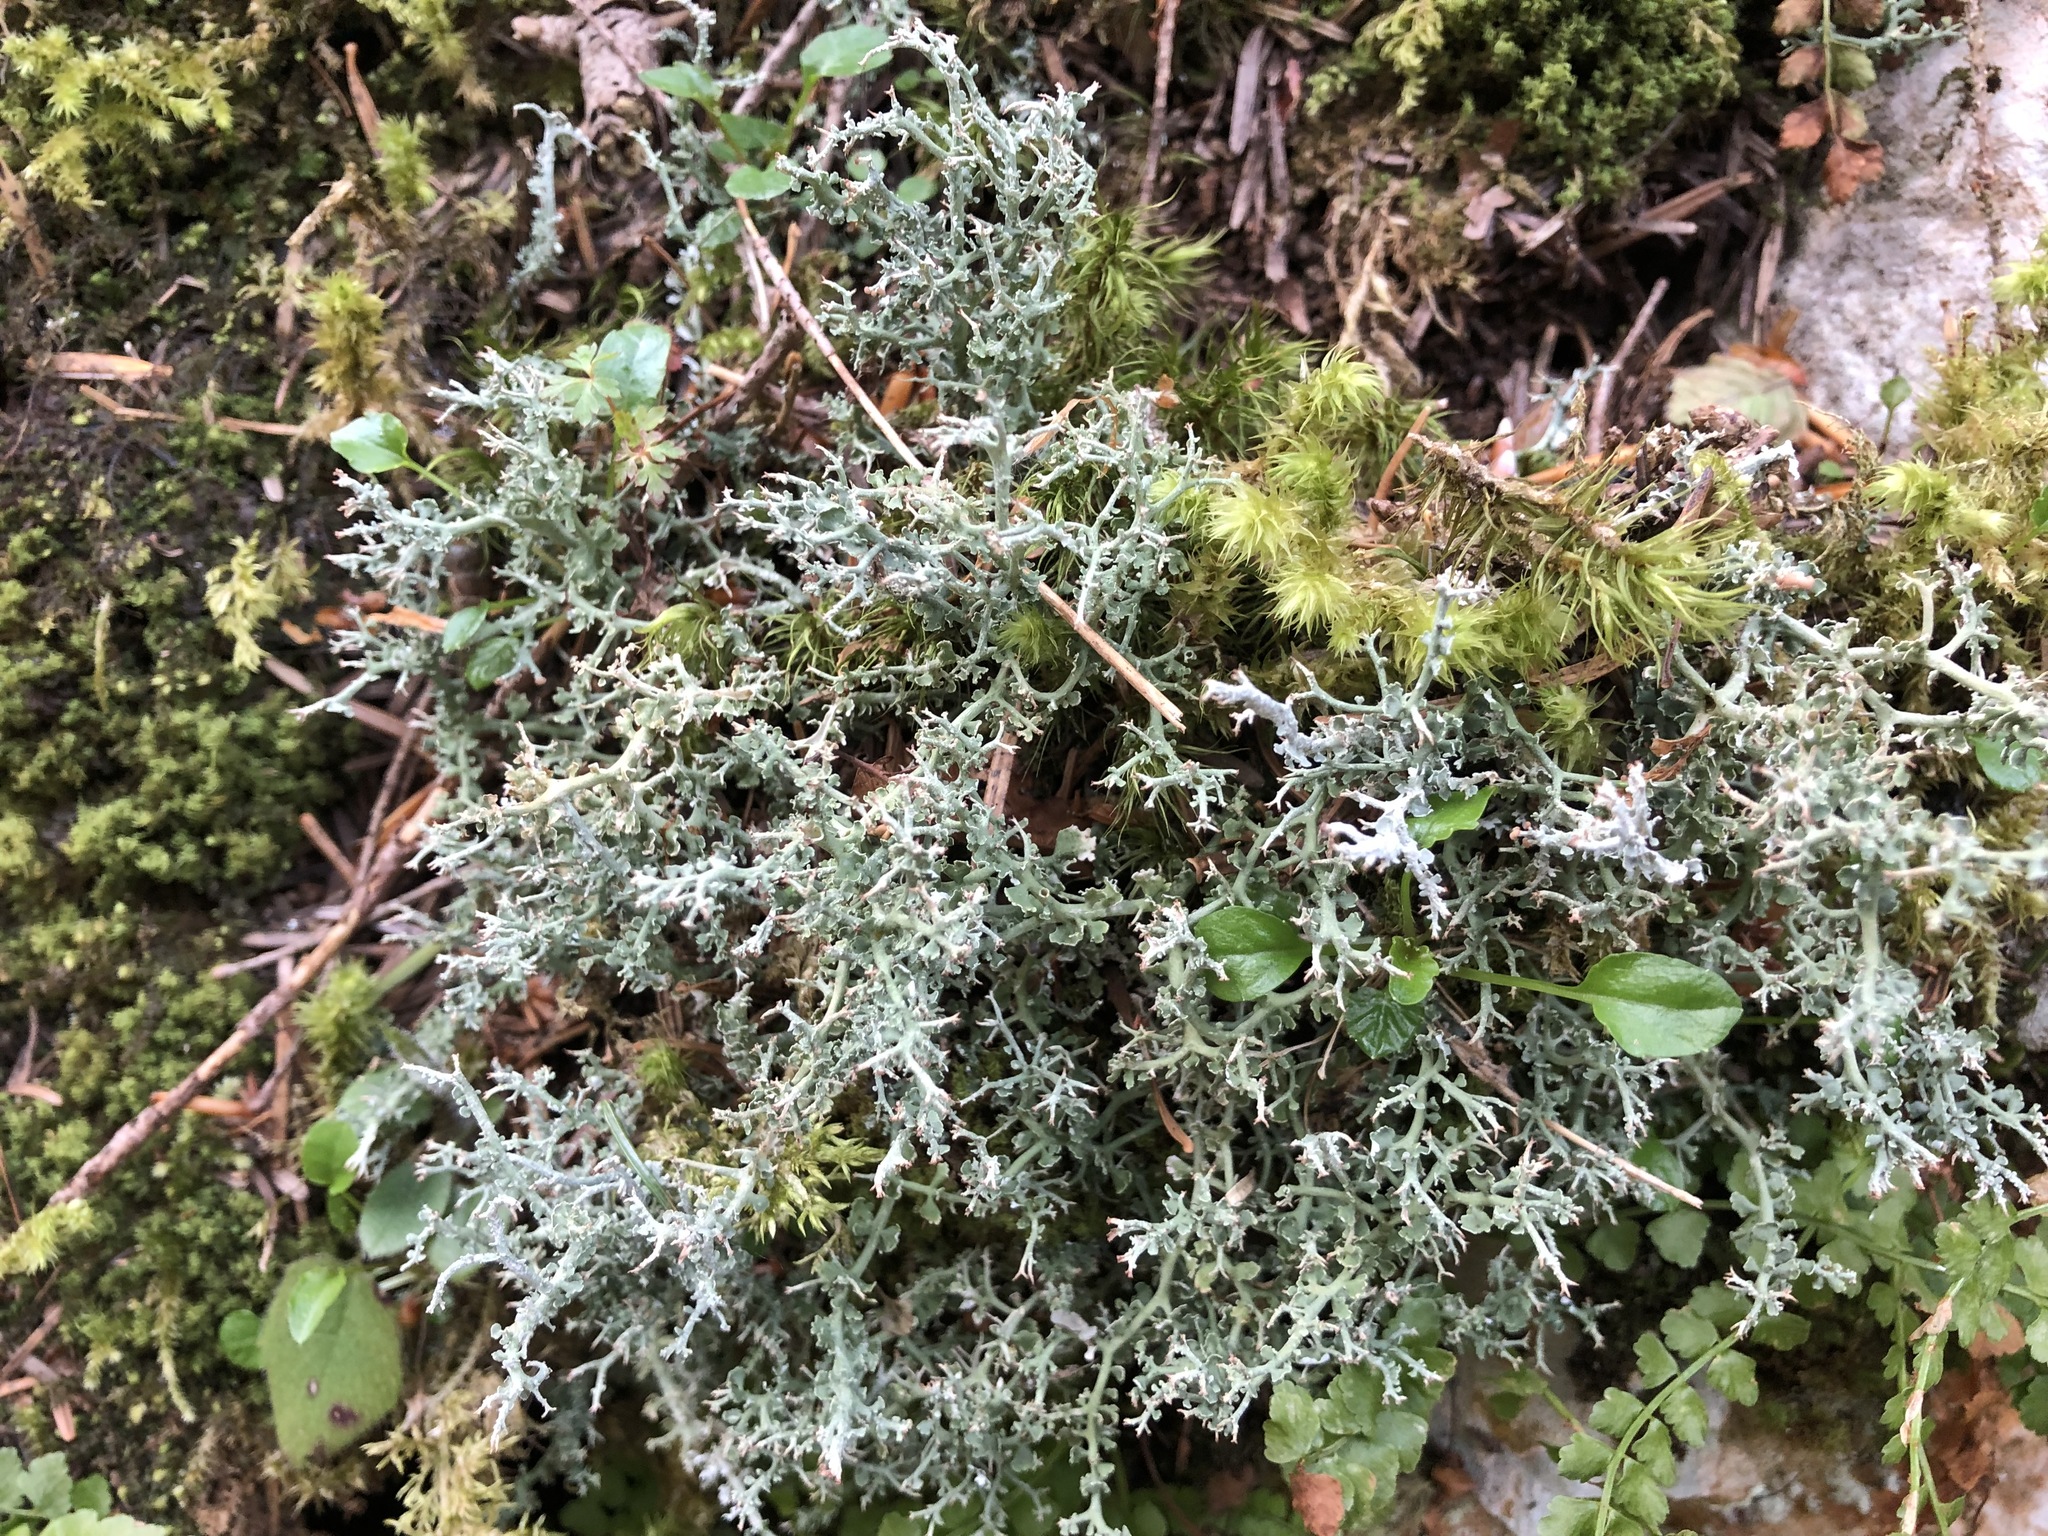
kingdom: Fungi
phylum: Ascomycota
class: Lecanoromycetes
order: Lecanorales
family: Cladoniaceae
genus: Cladonia
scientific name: Cladonia furcata
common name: Many-forked cladonia
